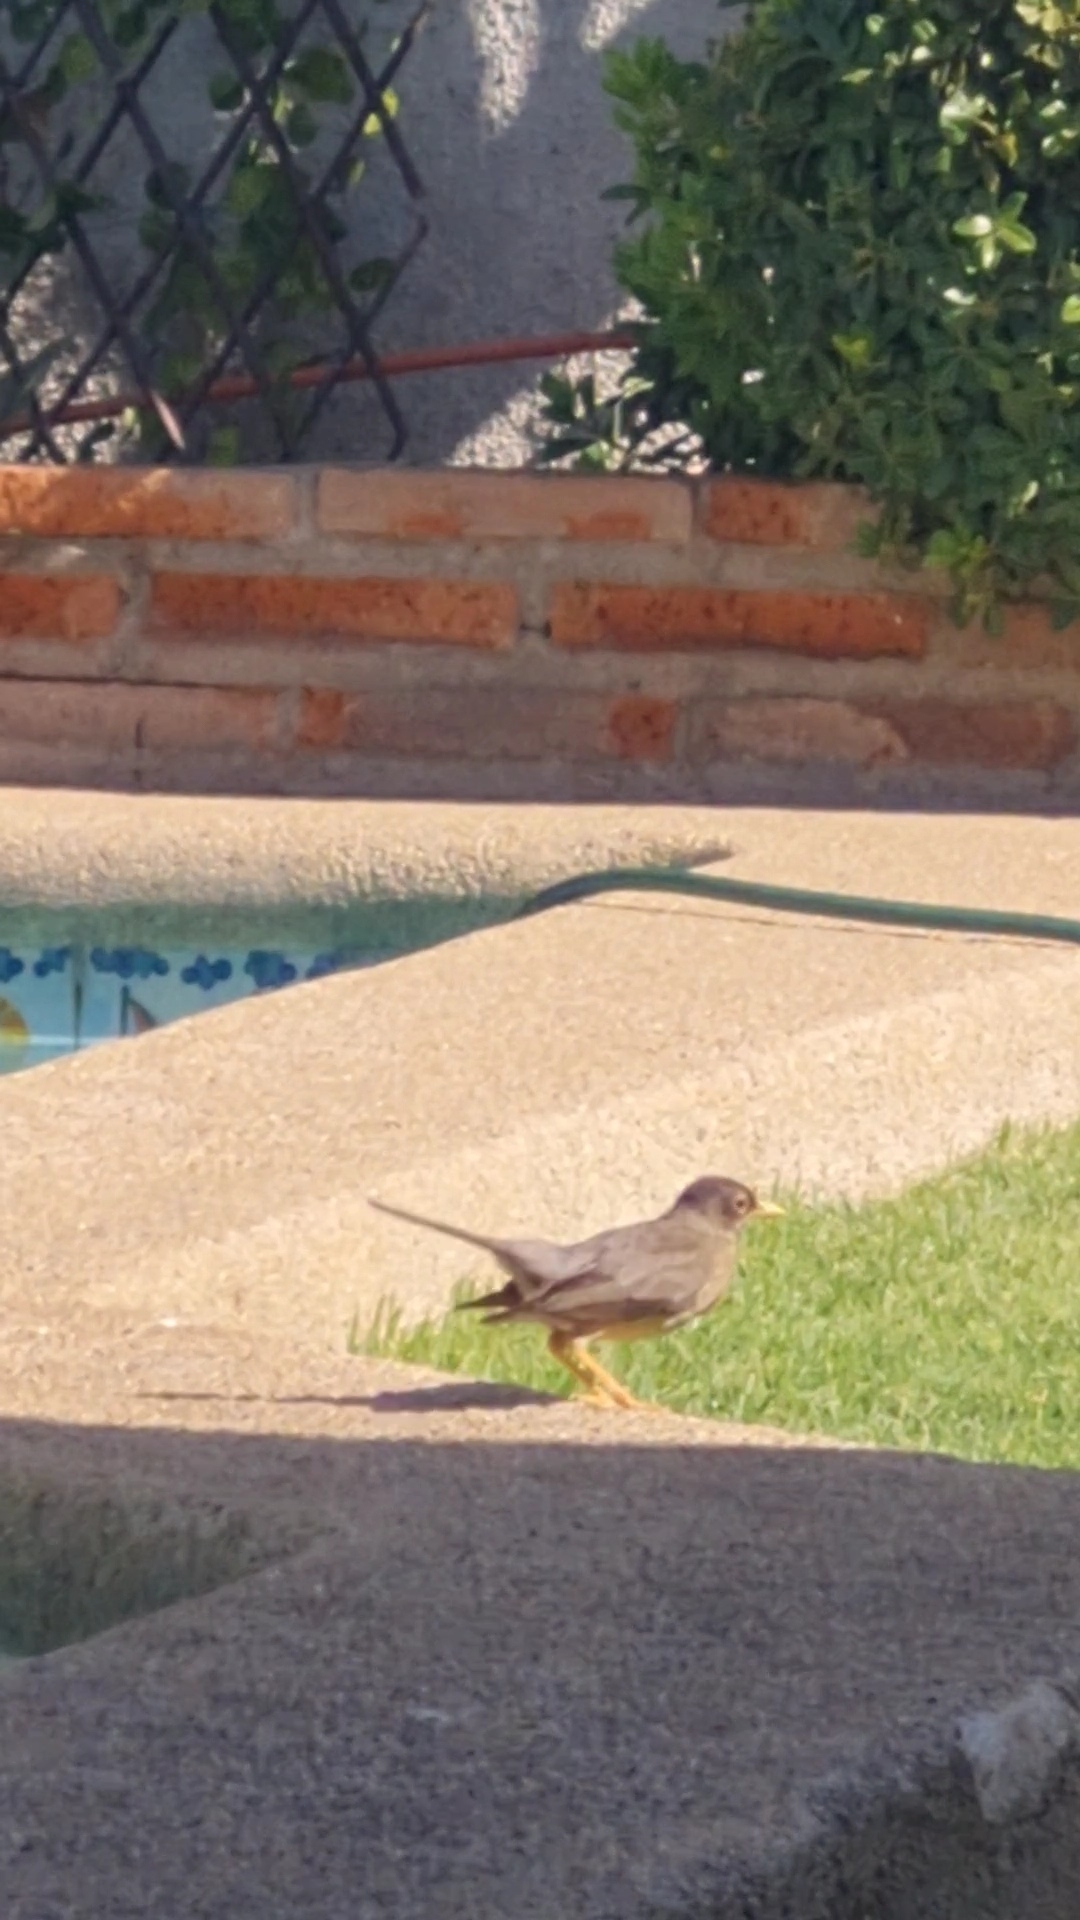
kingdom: Animalia
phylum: Chordata
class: Aves
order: Passeriformes
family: Turdidae
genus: Turdus
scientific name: Turdus falcklandii
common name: Austral thrush
